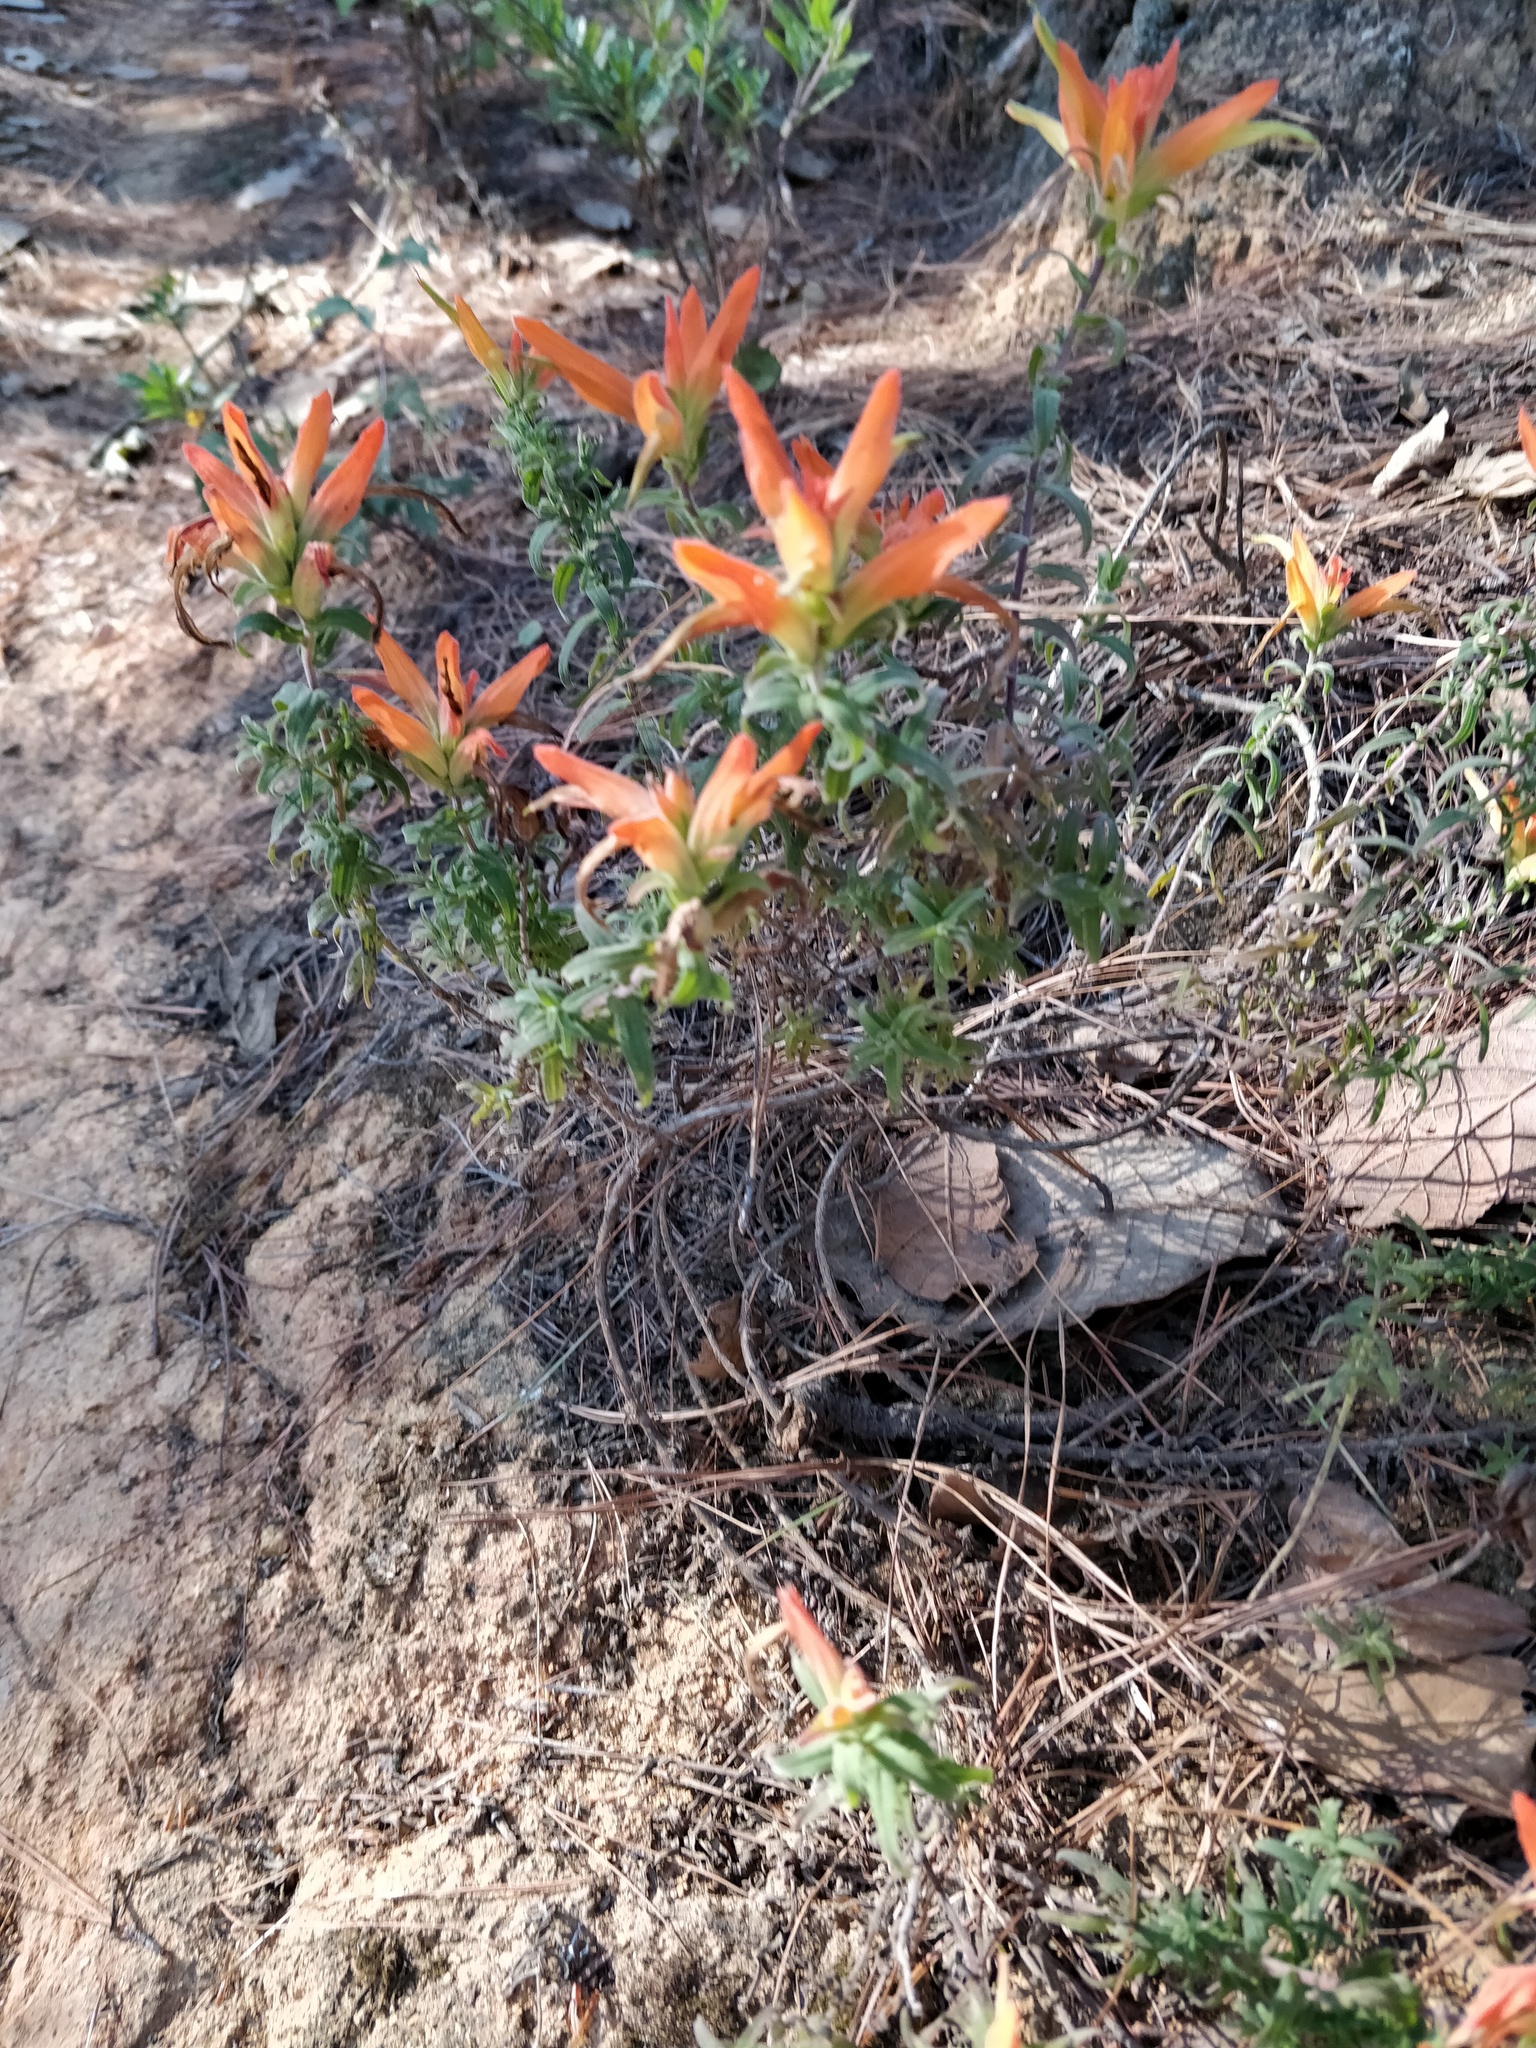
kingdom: Plantae
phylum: Tracheophyta
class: Magnoliopsida
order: Lamiales
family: Orobanchaceae
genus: Castilleja
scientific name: Castilleja tenuiflora
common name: Santa catalina indian paintbrush
